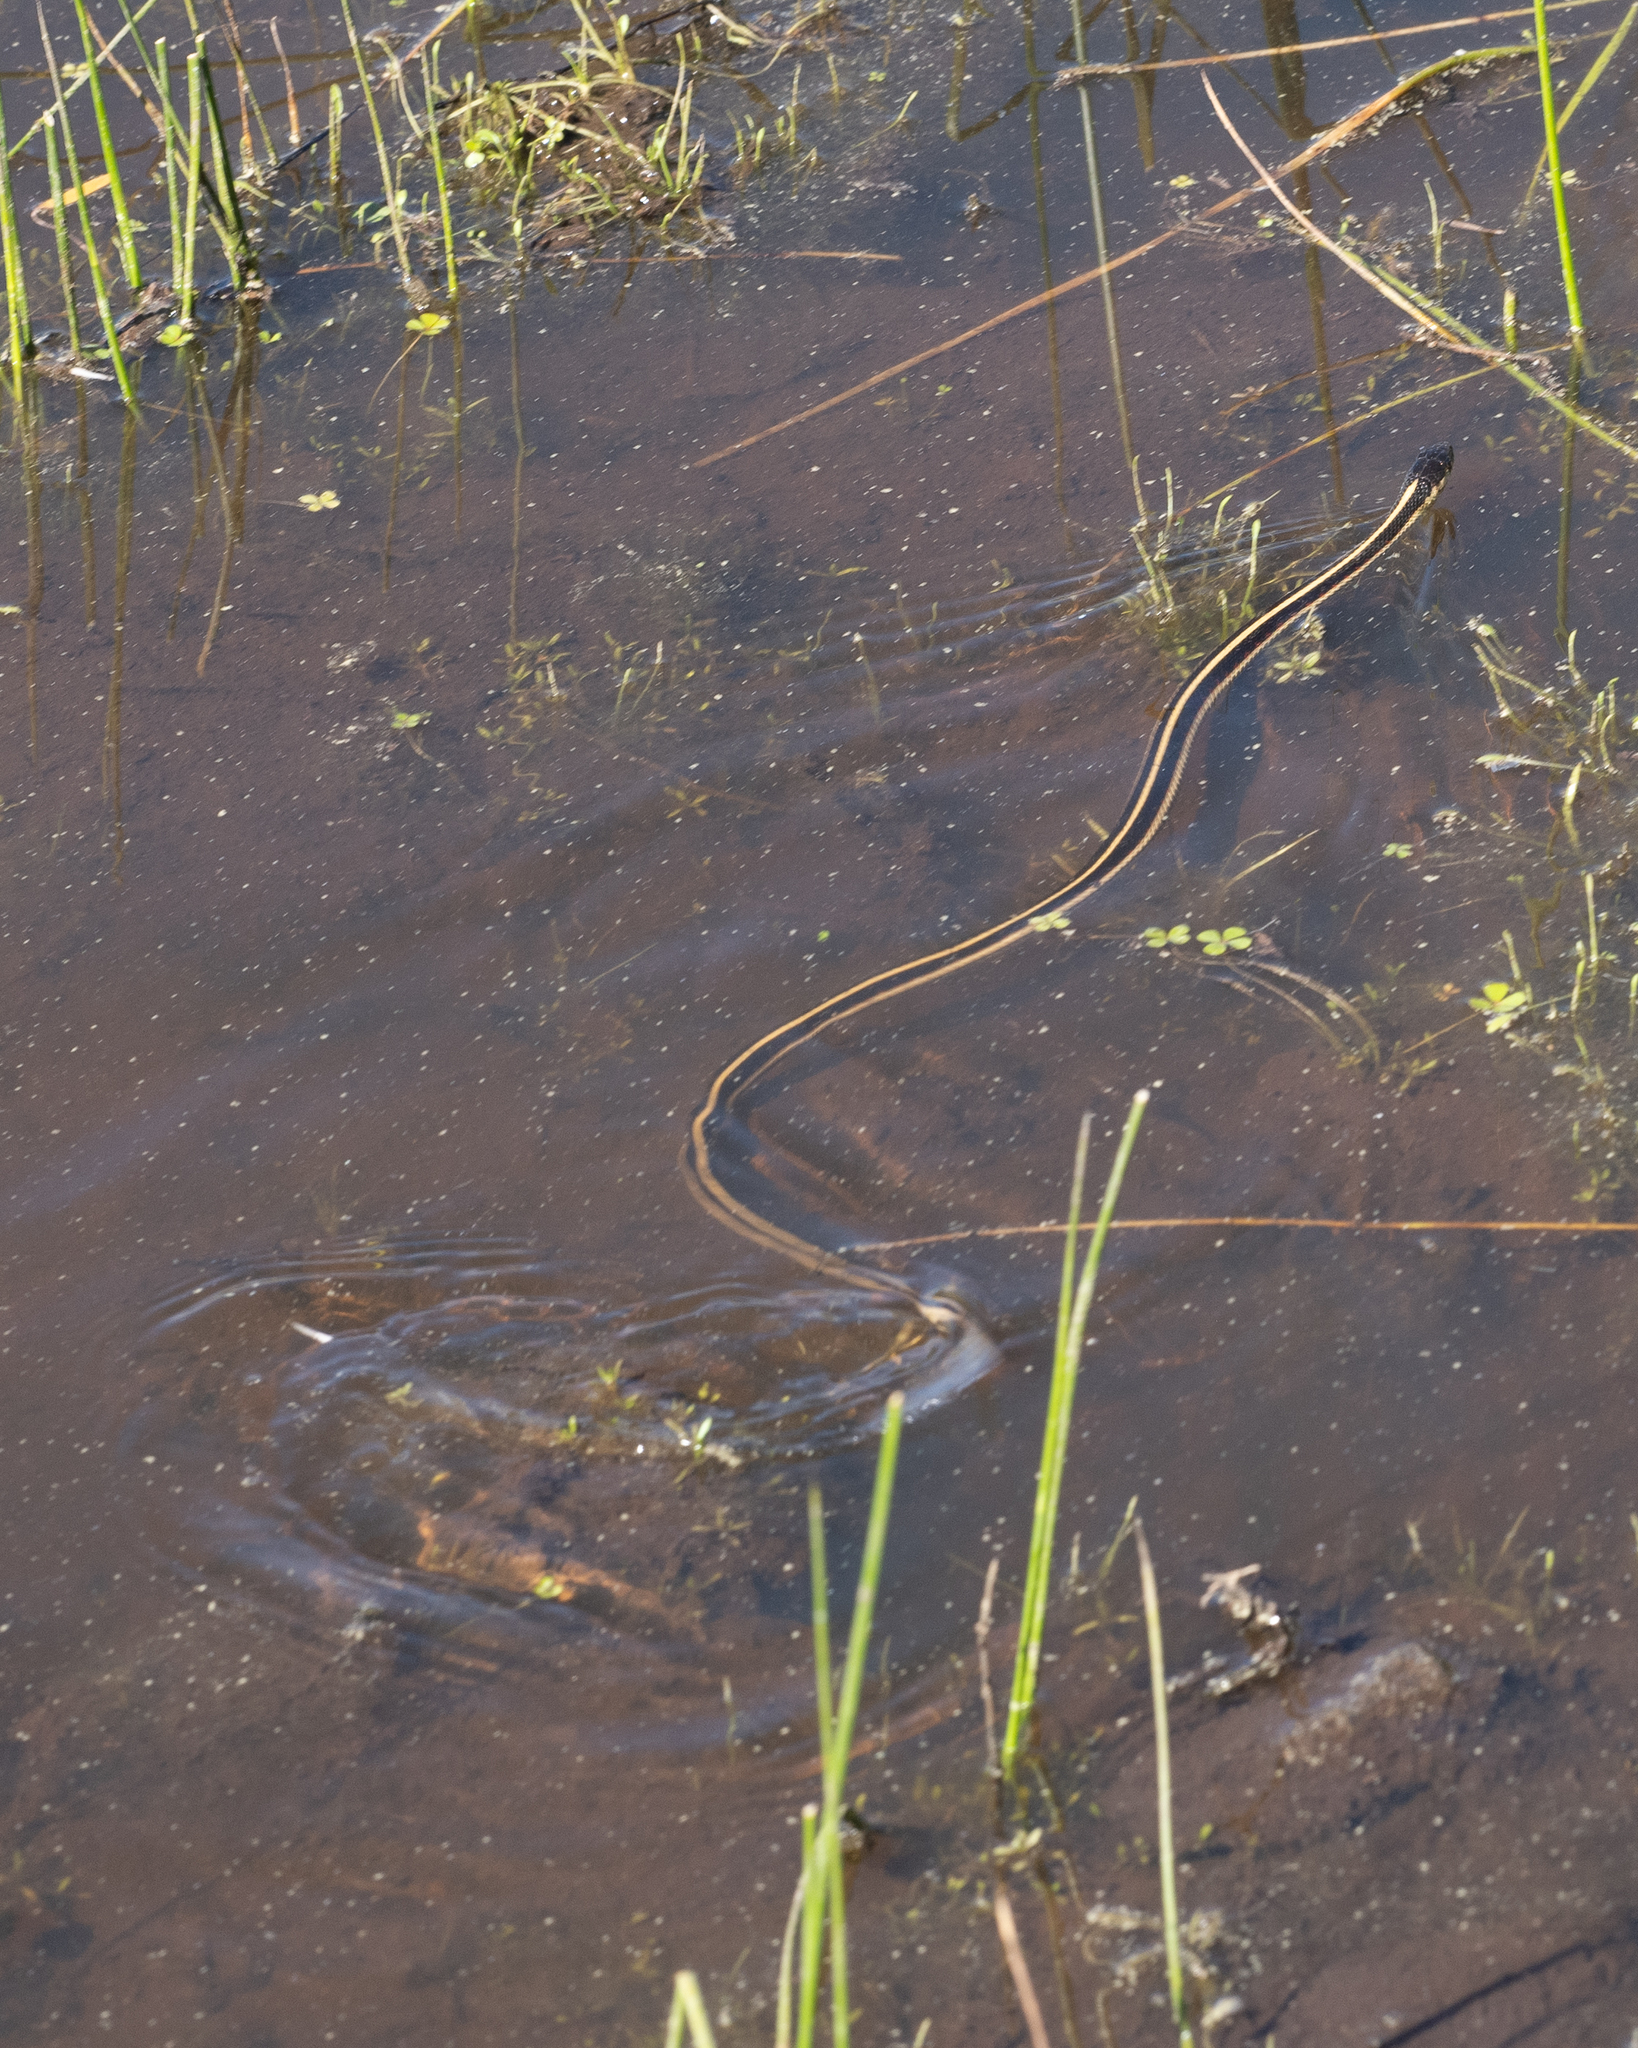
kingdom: Animalia
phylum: Chordata
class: Squamata
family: Colubridae
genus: Thamnophis
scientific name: Thamnophis sirtalis
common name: Common garter snake
